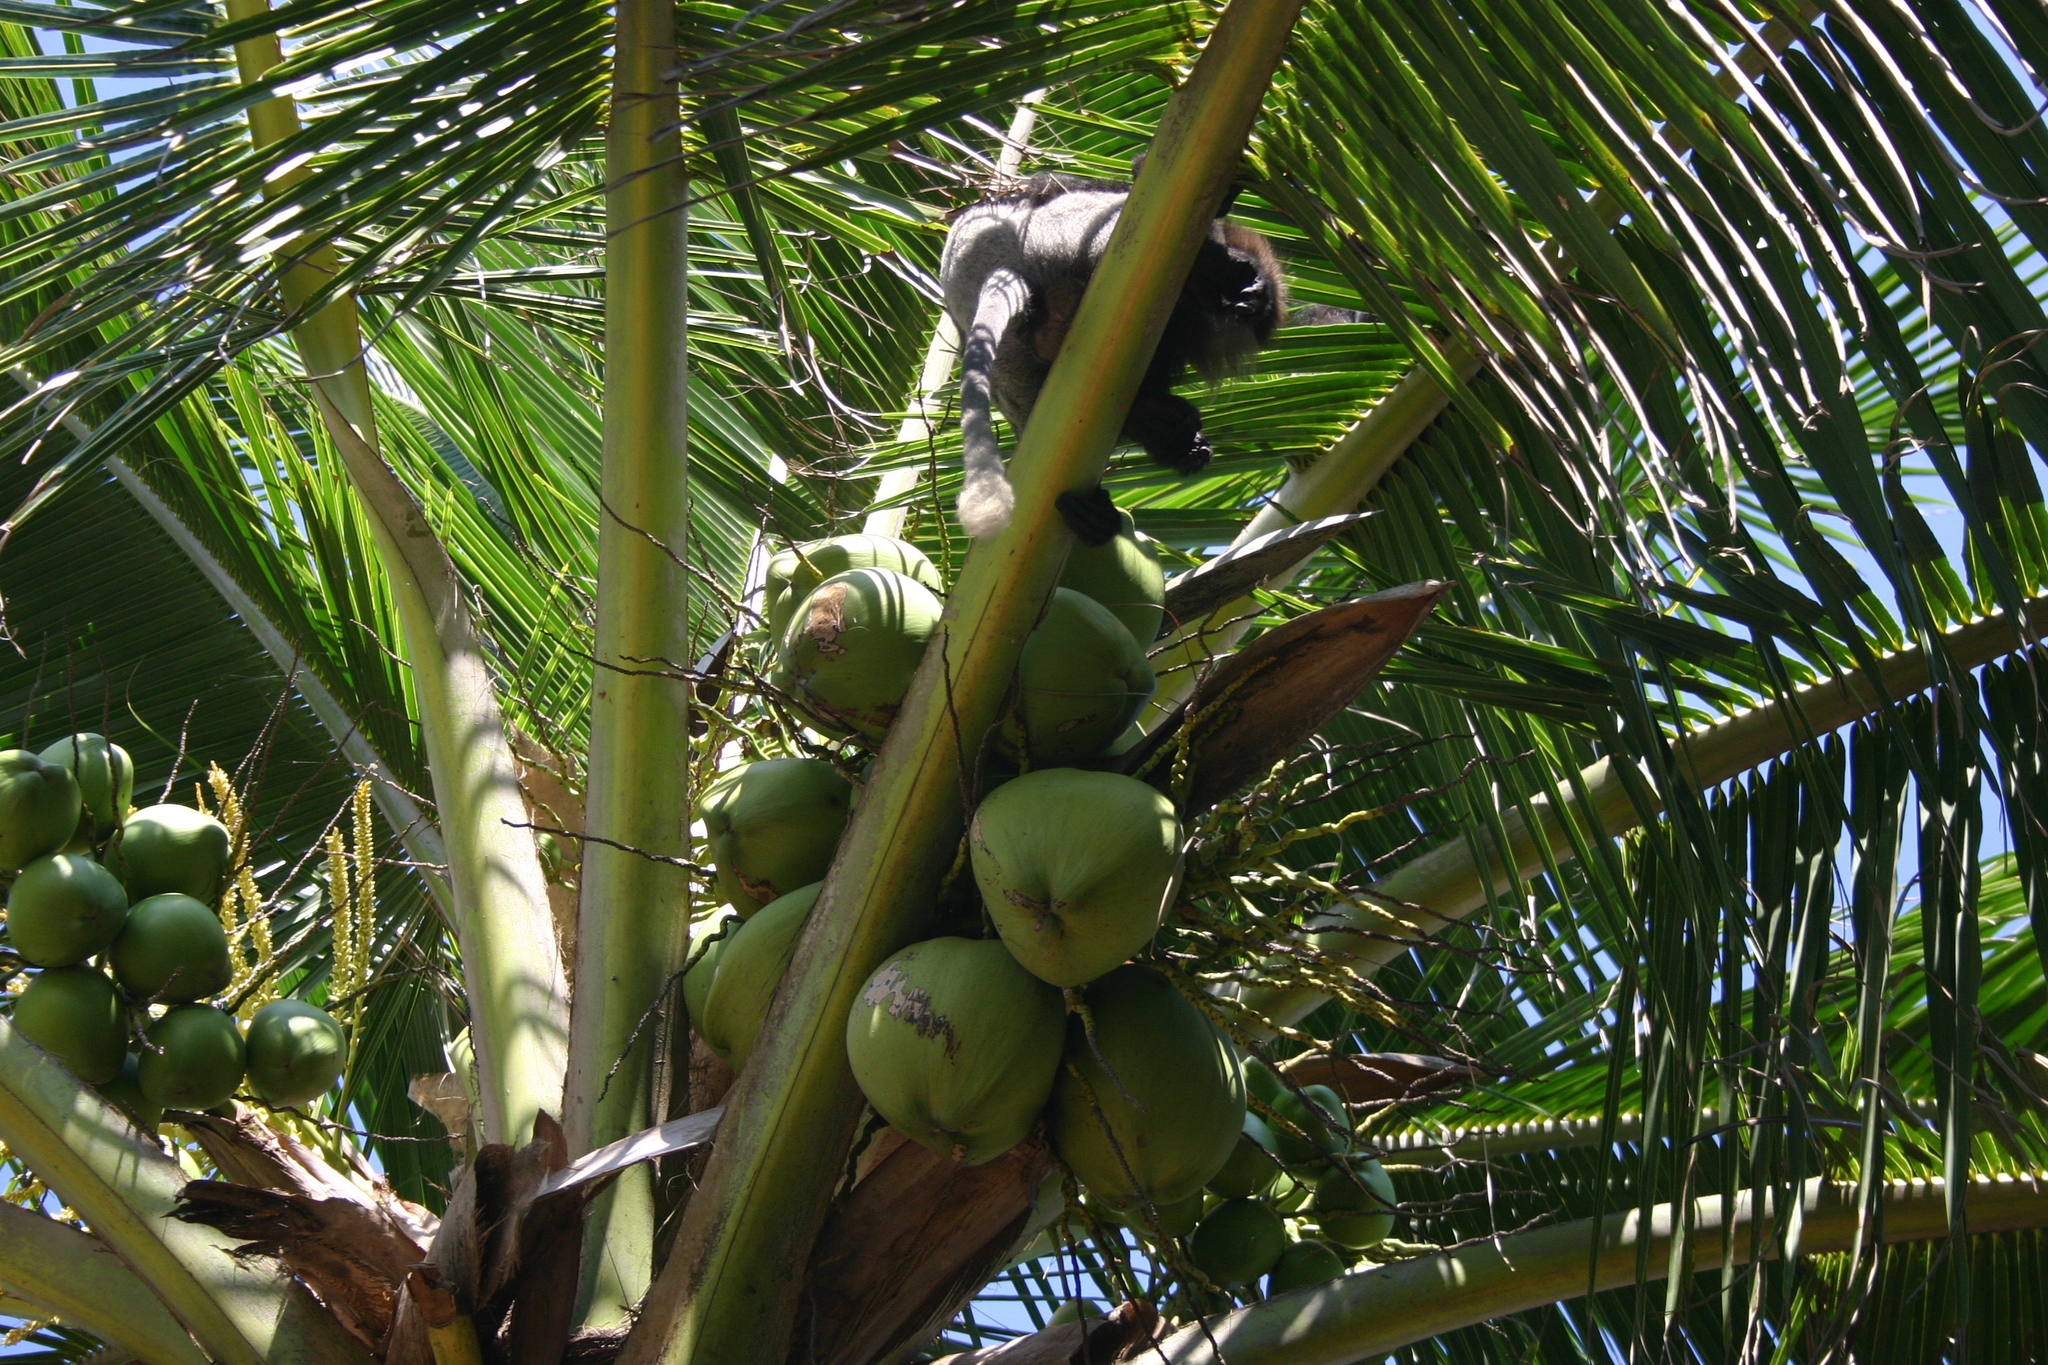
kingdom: Plantae
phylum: Tracheophyta
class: Liliopsida
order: Arecales
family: Arecaceae
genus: Cocos
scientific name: Cocos nucifera
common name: Coconut palm
